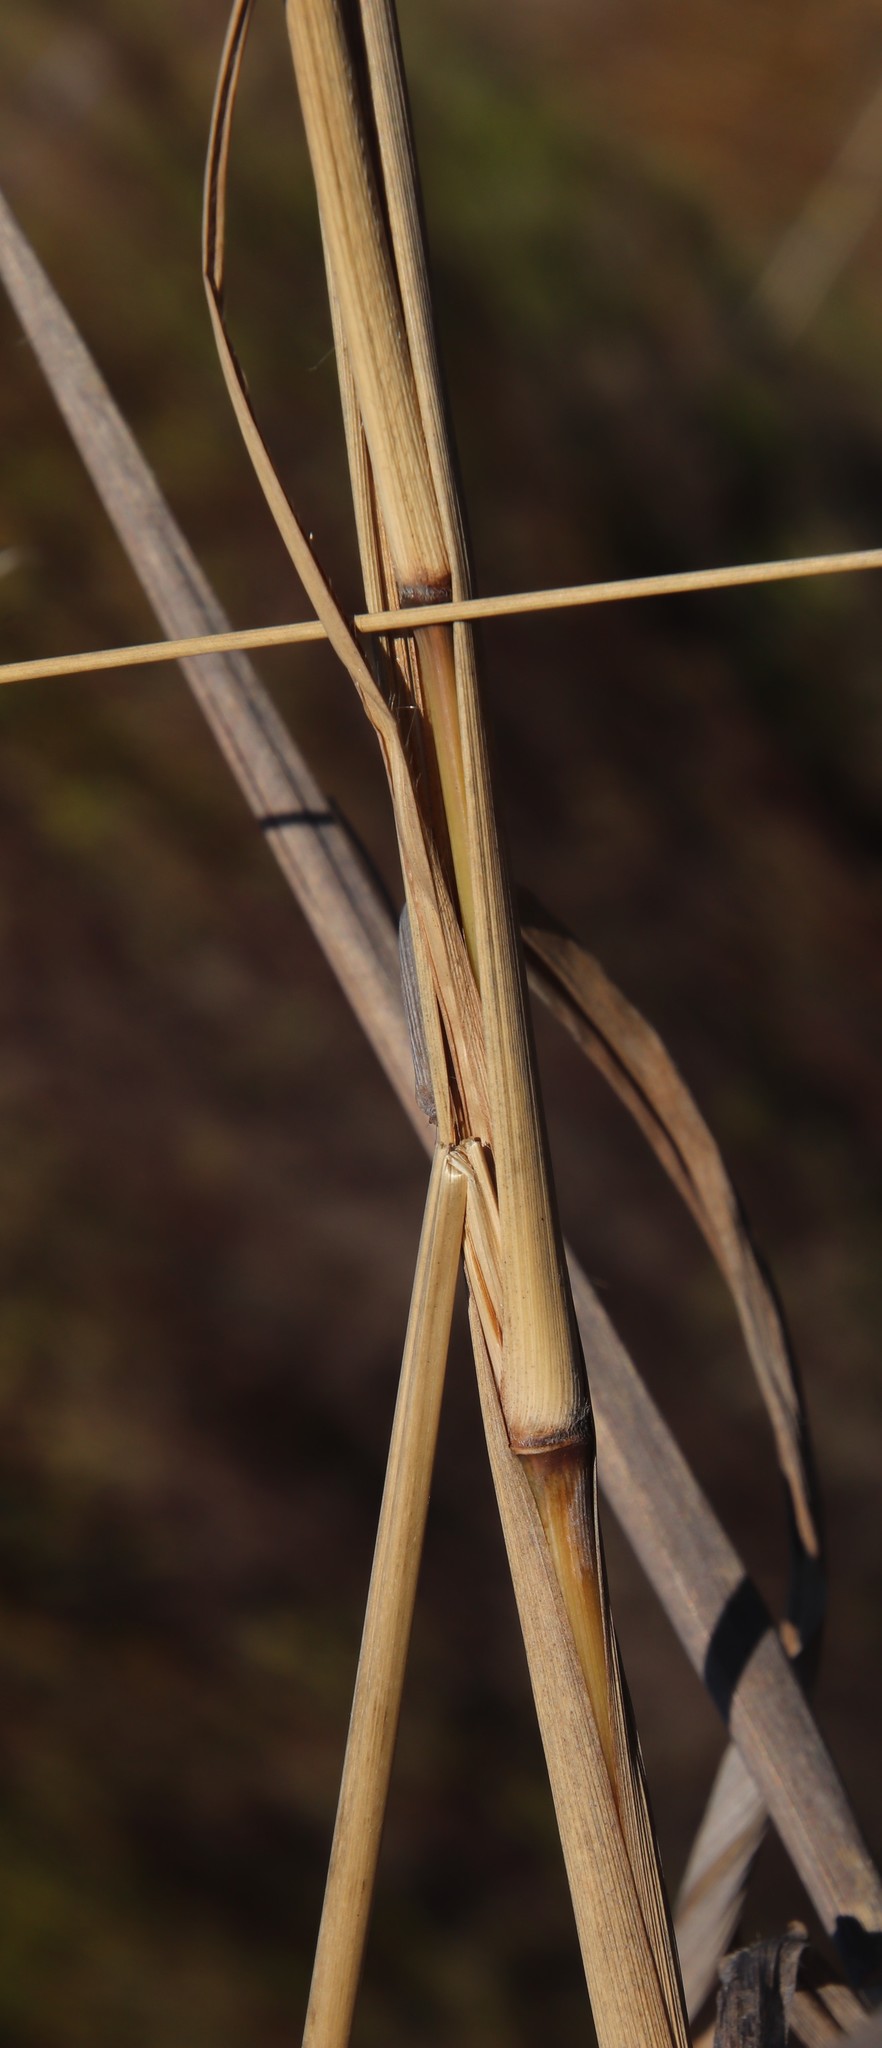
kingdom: Plantae
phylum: Tracheophyta
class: Liliopsida
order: Poales
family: Poaceae
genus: Cenchrus
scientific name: Cenchrus caudatus
